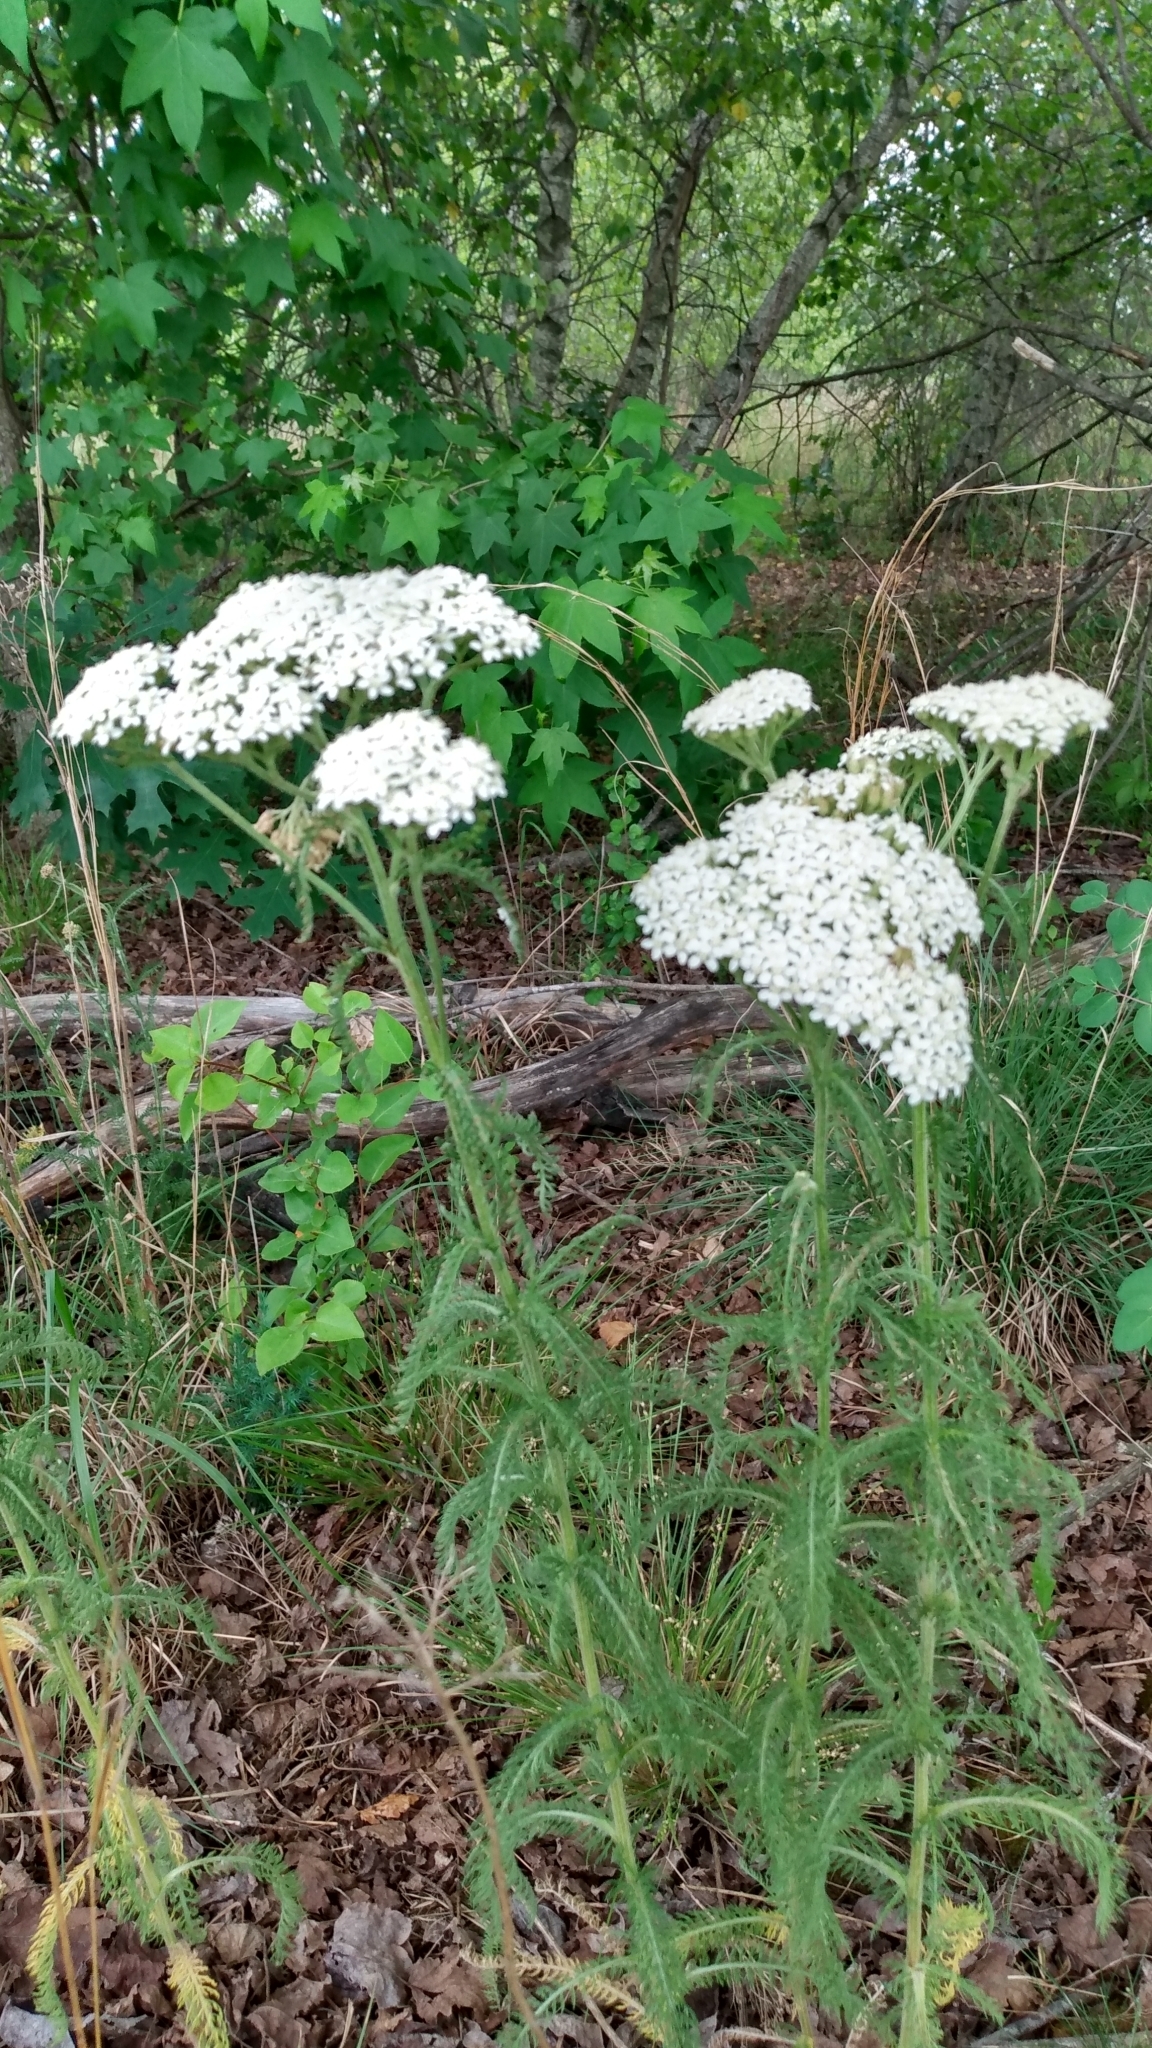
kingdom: Plantae
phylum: Tracheophyta
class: Magnoliopsida
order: Asterales
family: Asteraceae
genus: Achillea
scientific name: Achillea millefolium
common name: Yarrow
